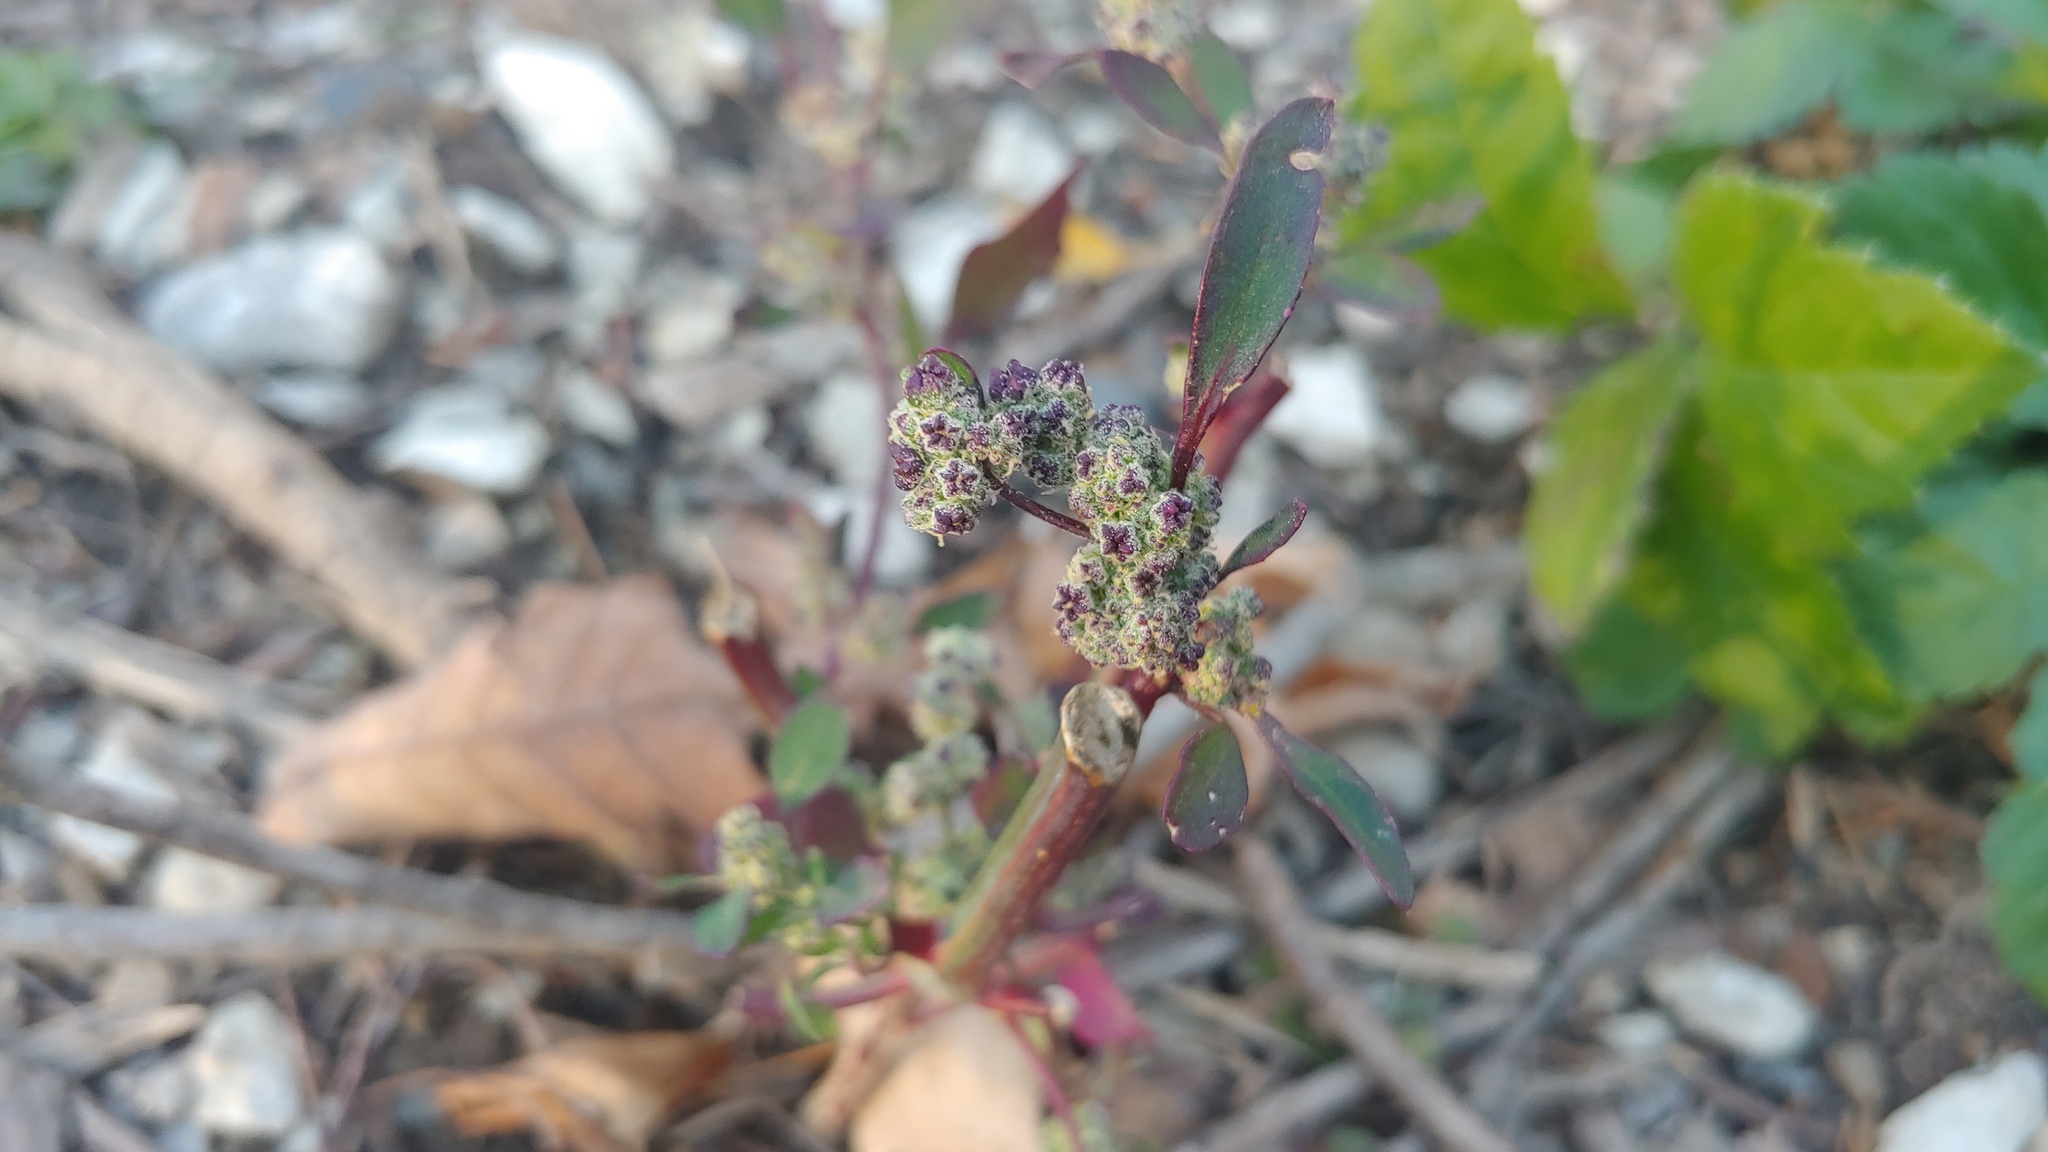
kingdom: Plantae
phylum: Tracheophyta
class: Magnoliopsida
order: Caryophyllales
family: Amaranthaceae
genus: Chenopodium
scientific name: Chenopodium album
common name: Fat-hen
